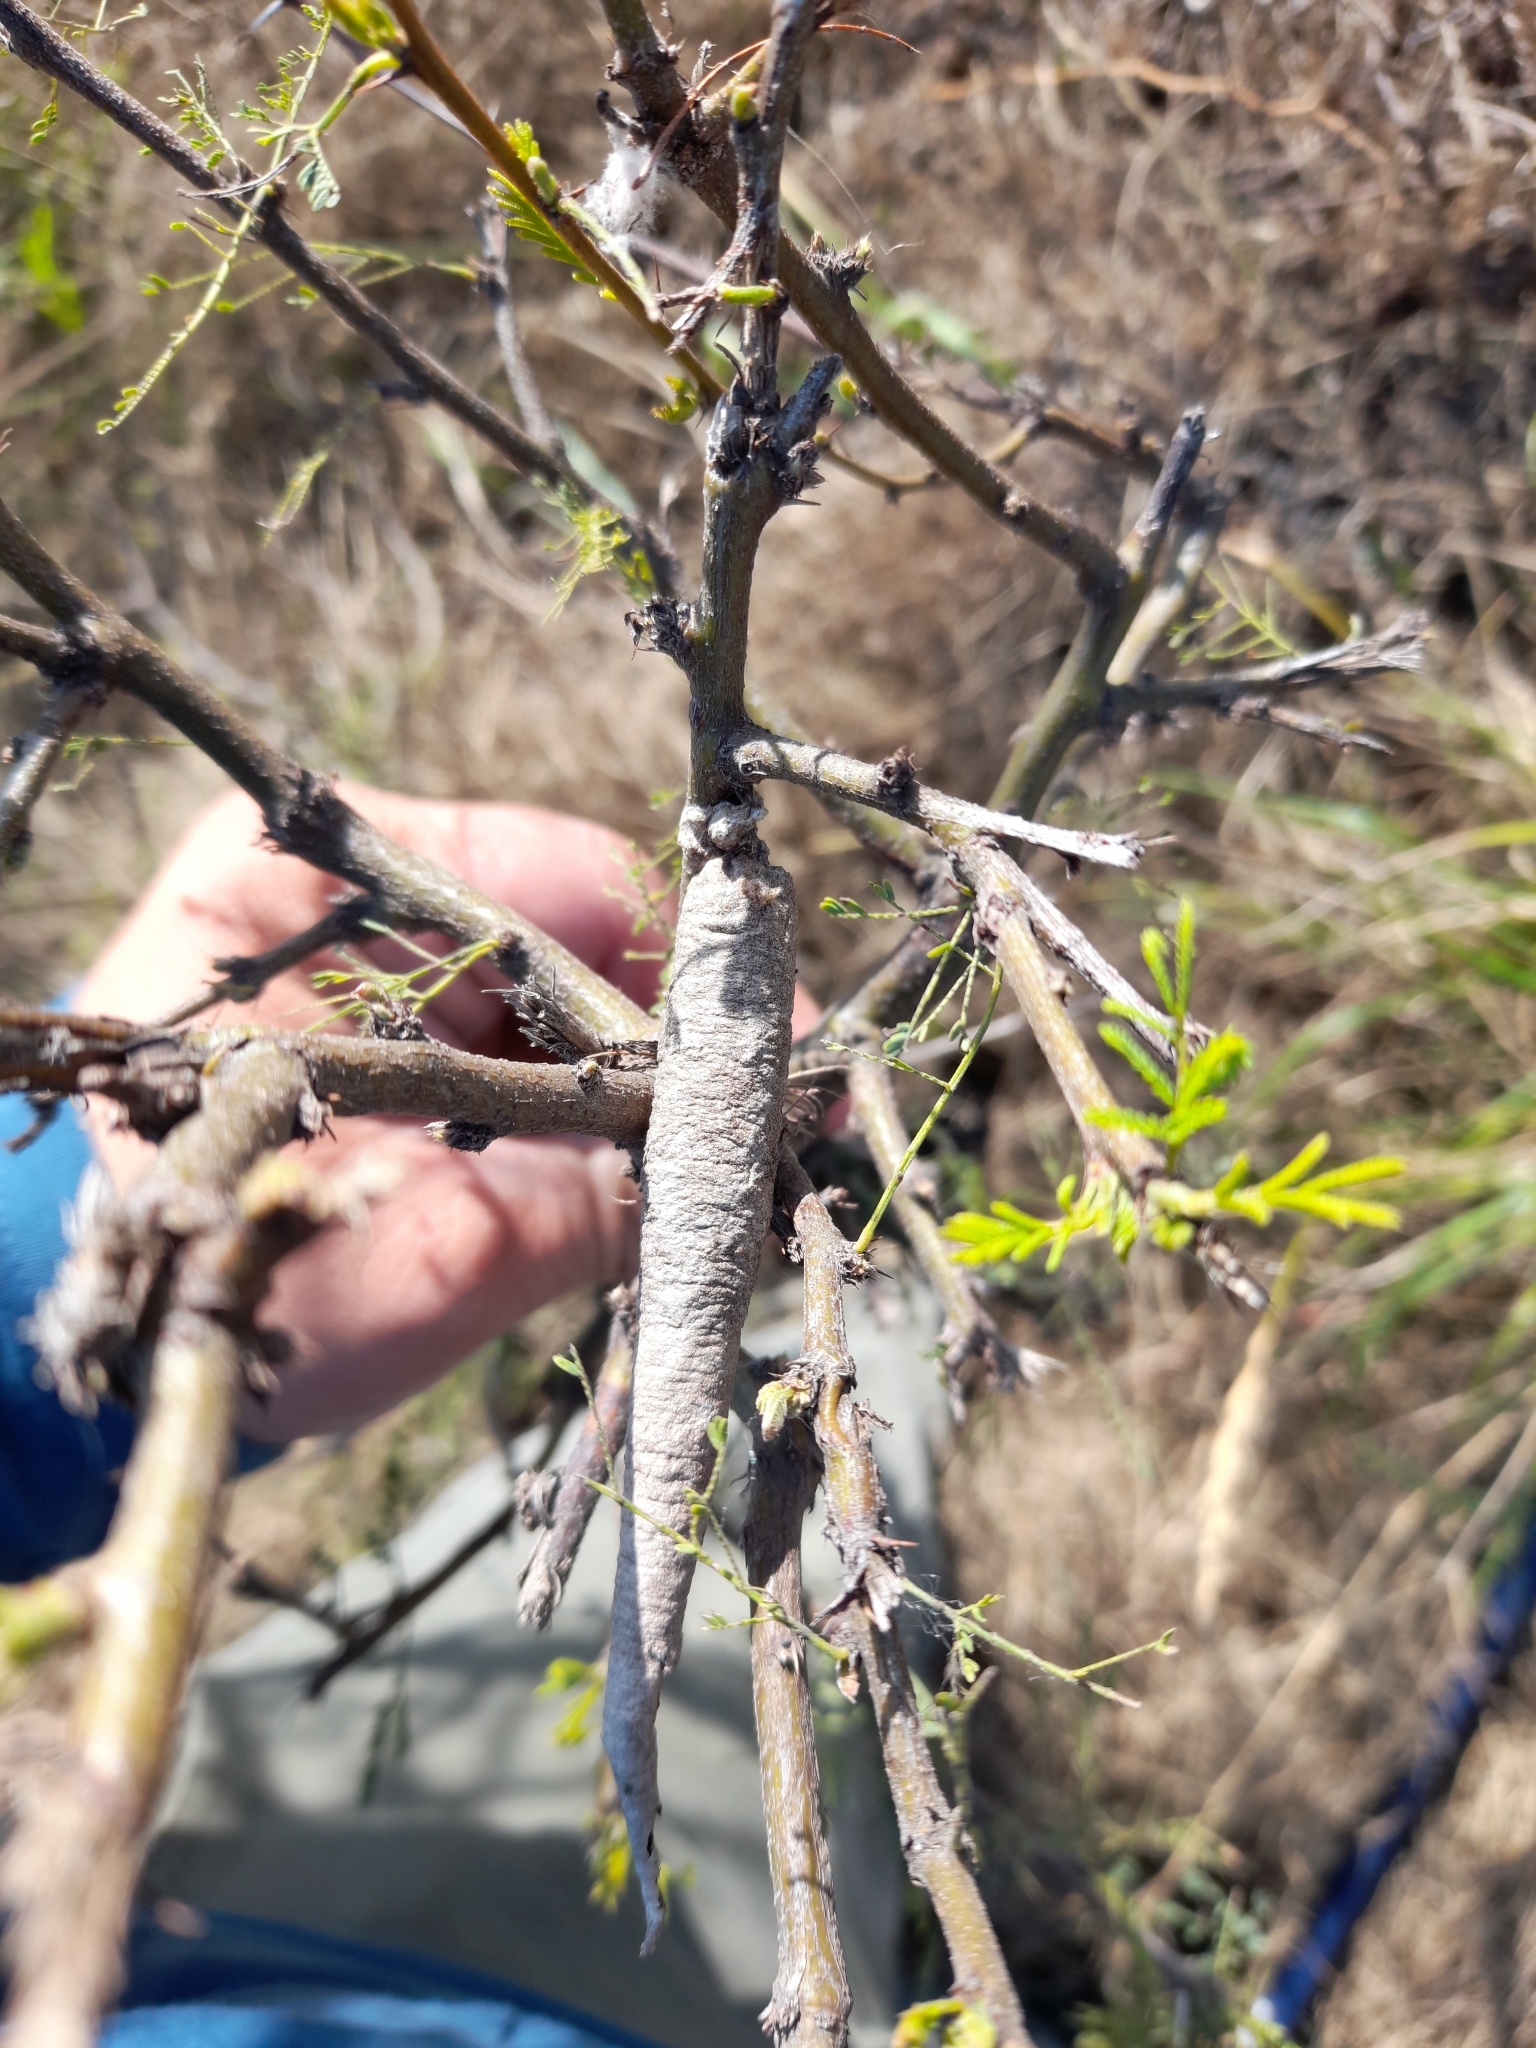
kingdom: Animalia
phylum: Arthropoda
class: Insecta
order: Lepidoptera
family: Psychidae
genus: Oiketicus
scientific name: Oiketicus geyeri
